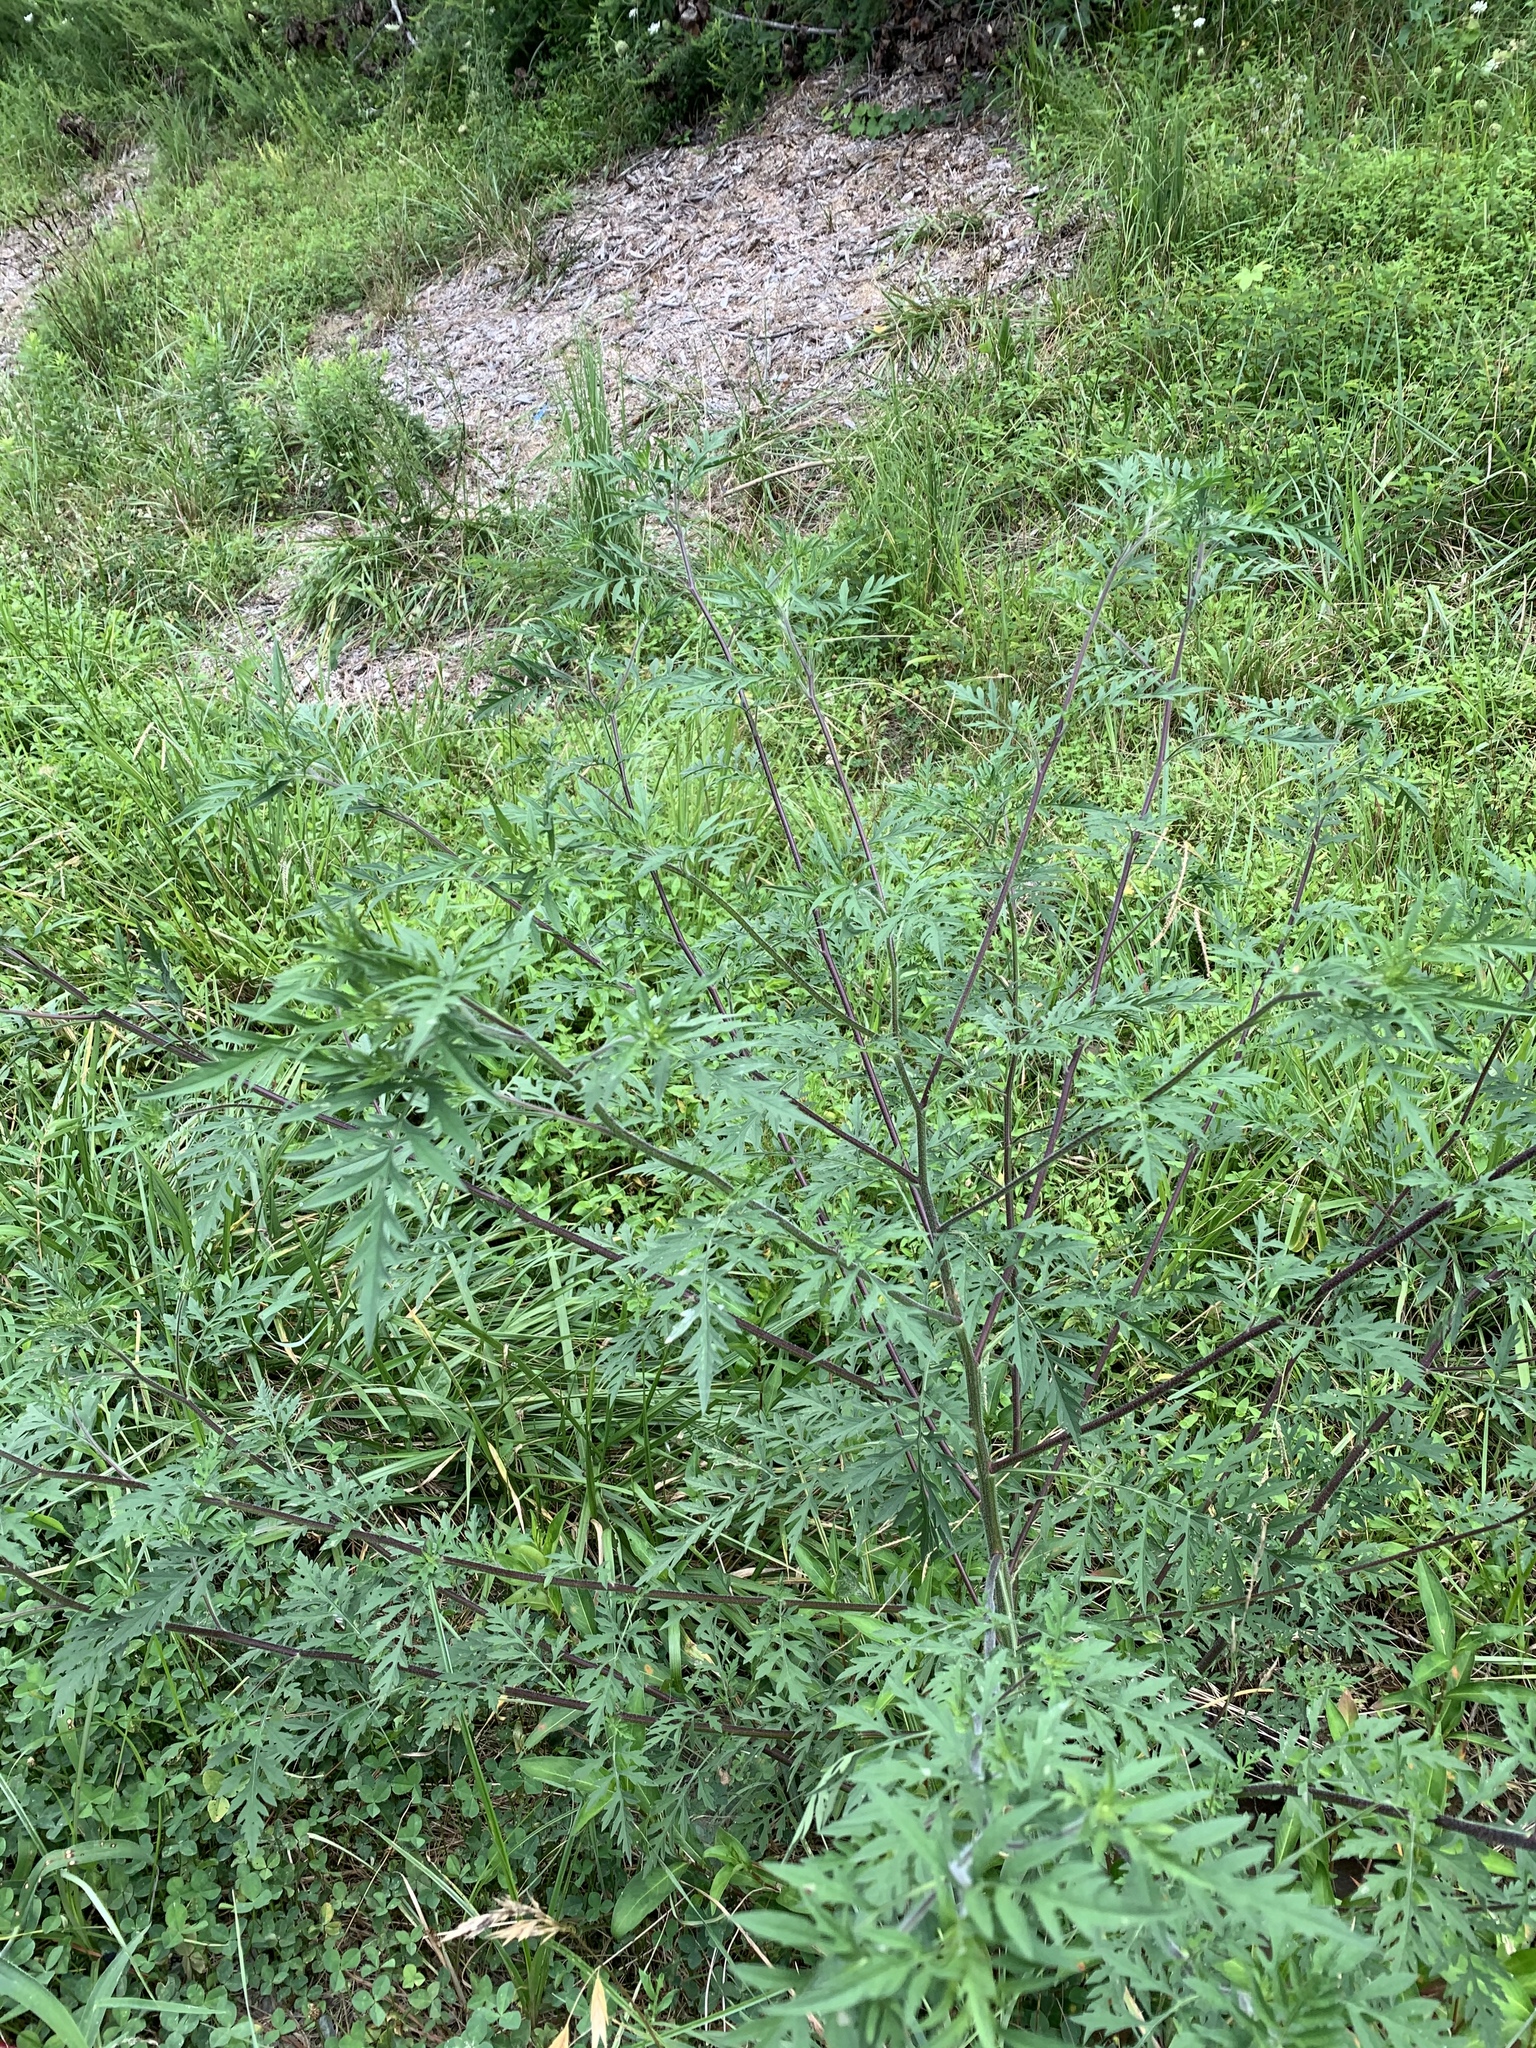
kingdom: Plantae
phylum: Tracheophyta
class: Magnoliopsida
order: Asterales
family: Asteraceae
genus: Ambrosia
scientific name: Ambrosia artemisiifolia
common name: Annual ragweed
